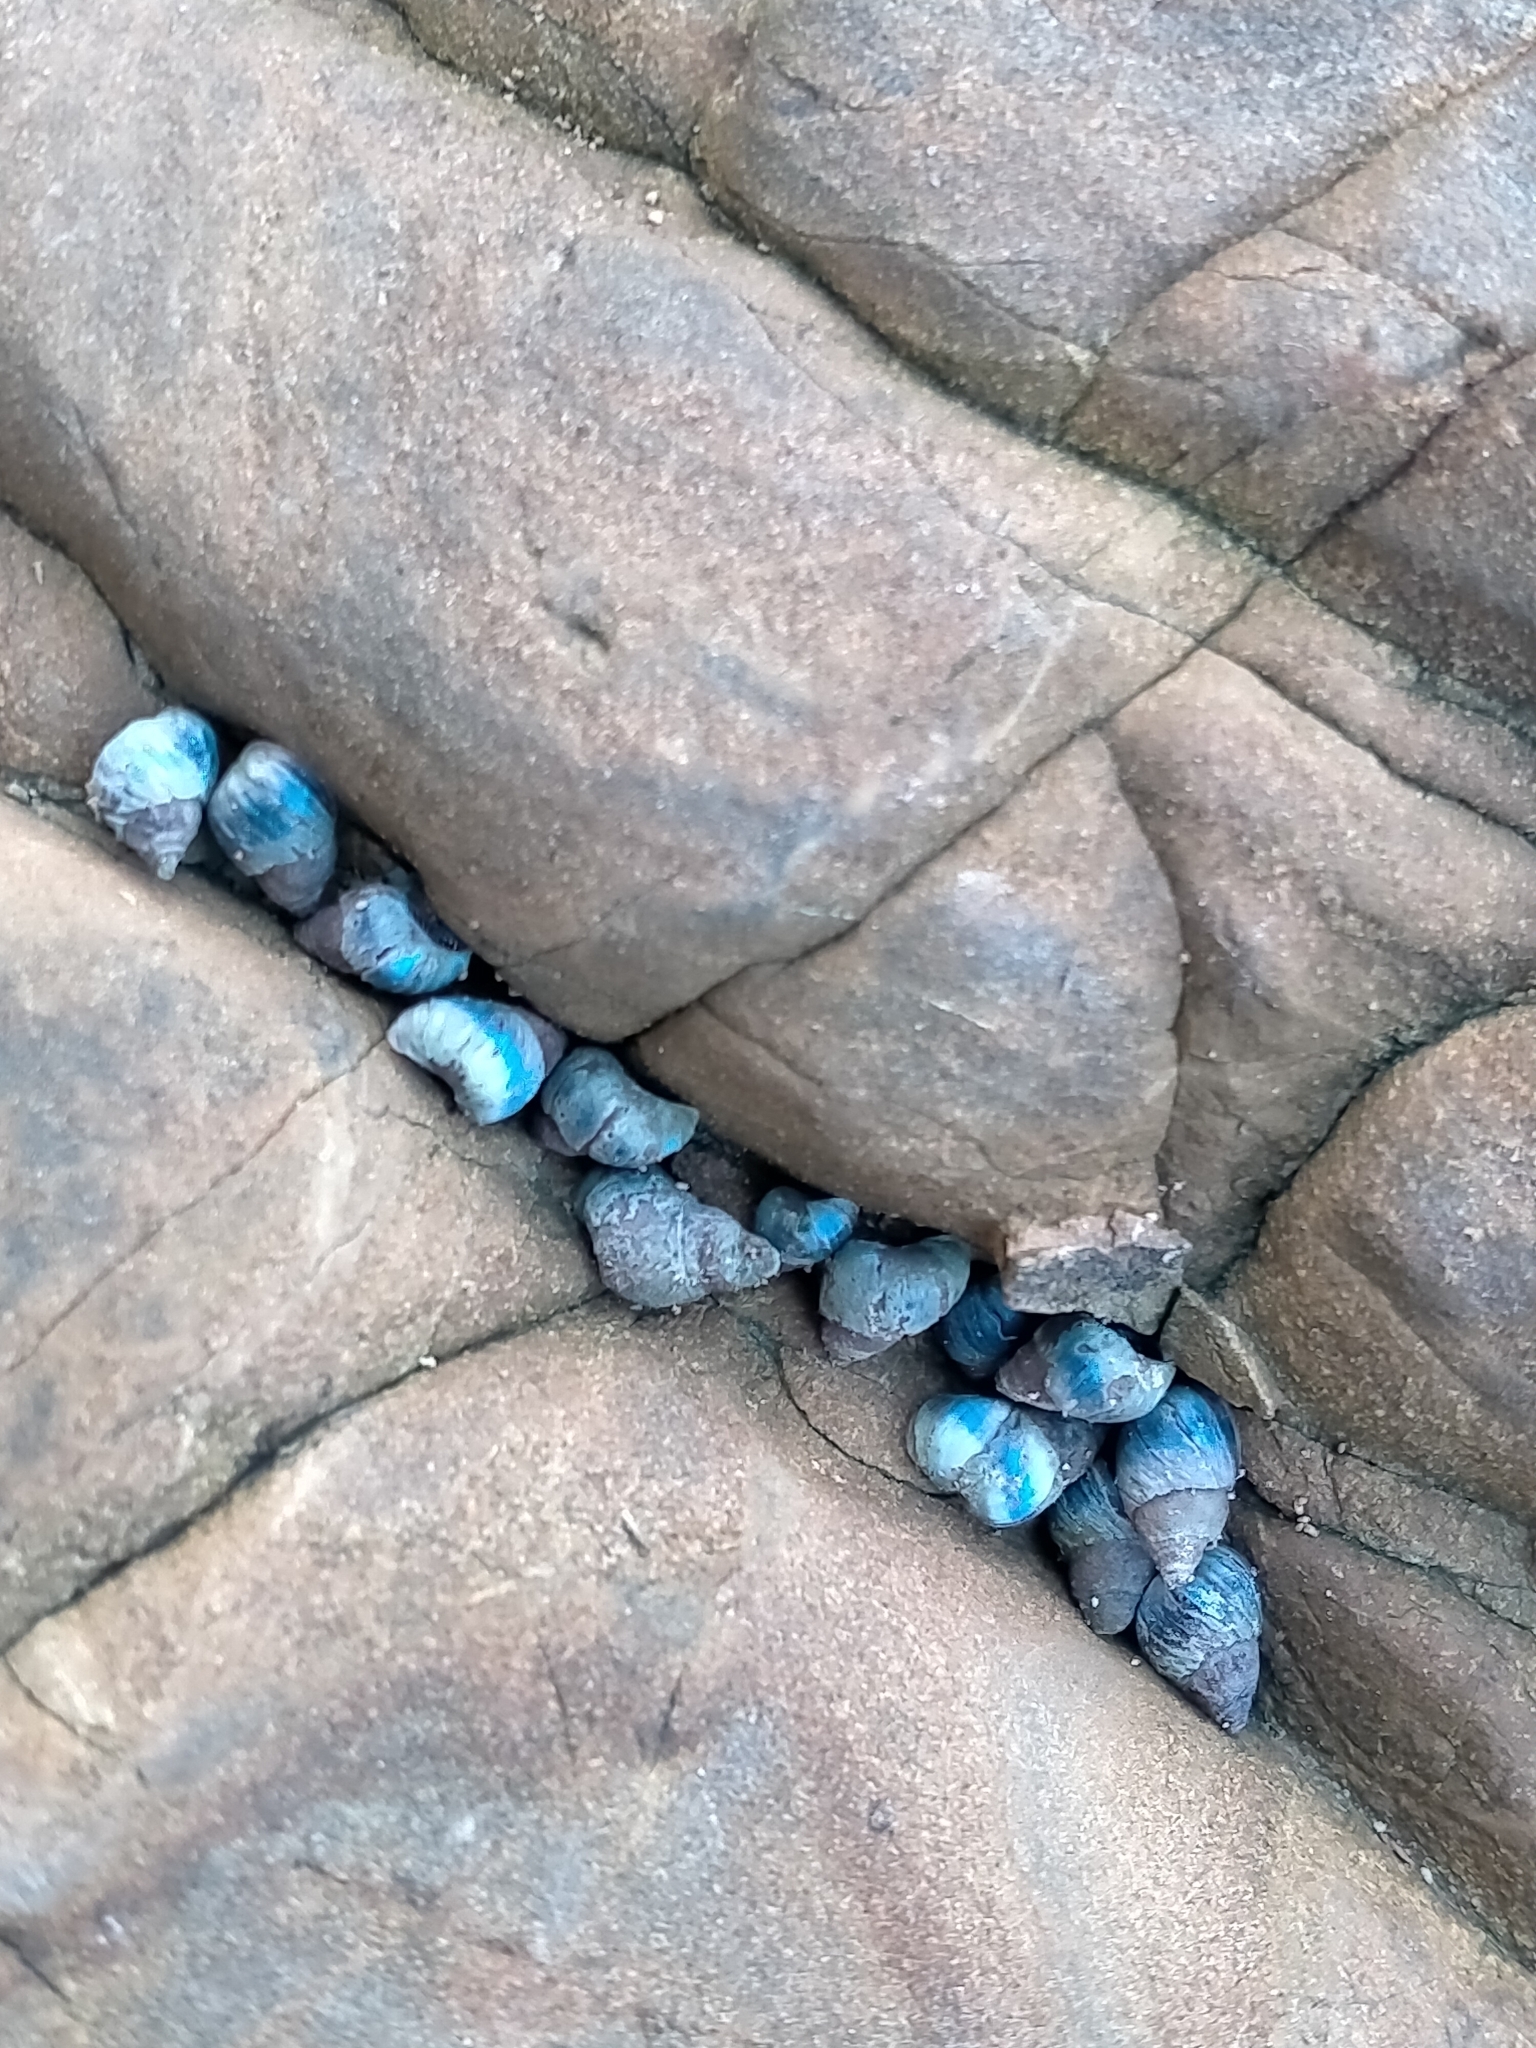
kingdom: Animalia
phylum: Mollusca
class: Gastropoda
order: Littorinimorpha
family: Littorinidae
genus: Austrolittorina
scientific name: Austrolittorina antipodum
